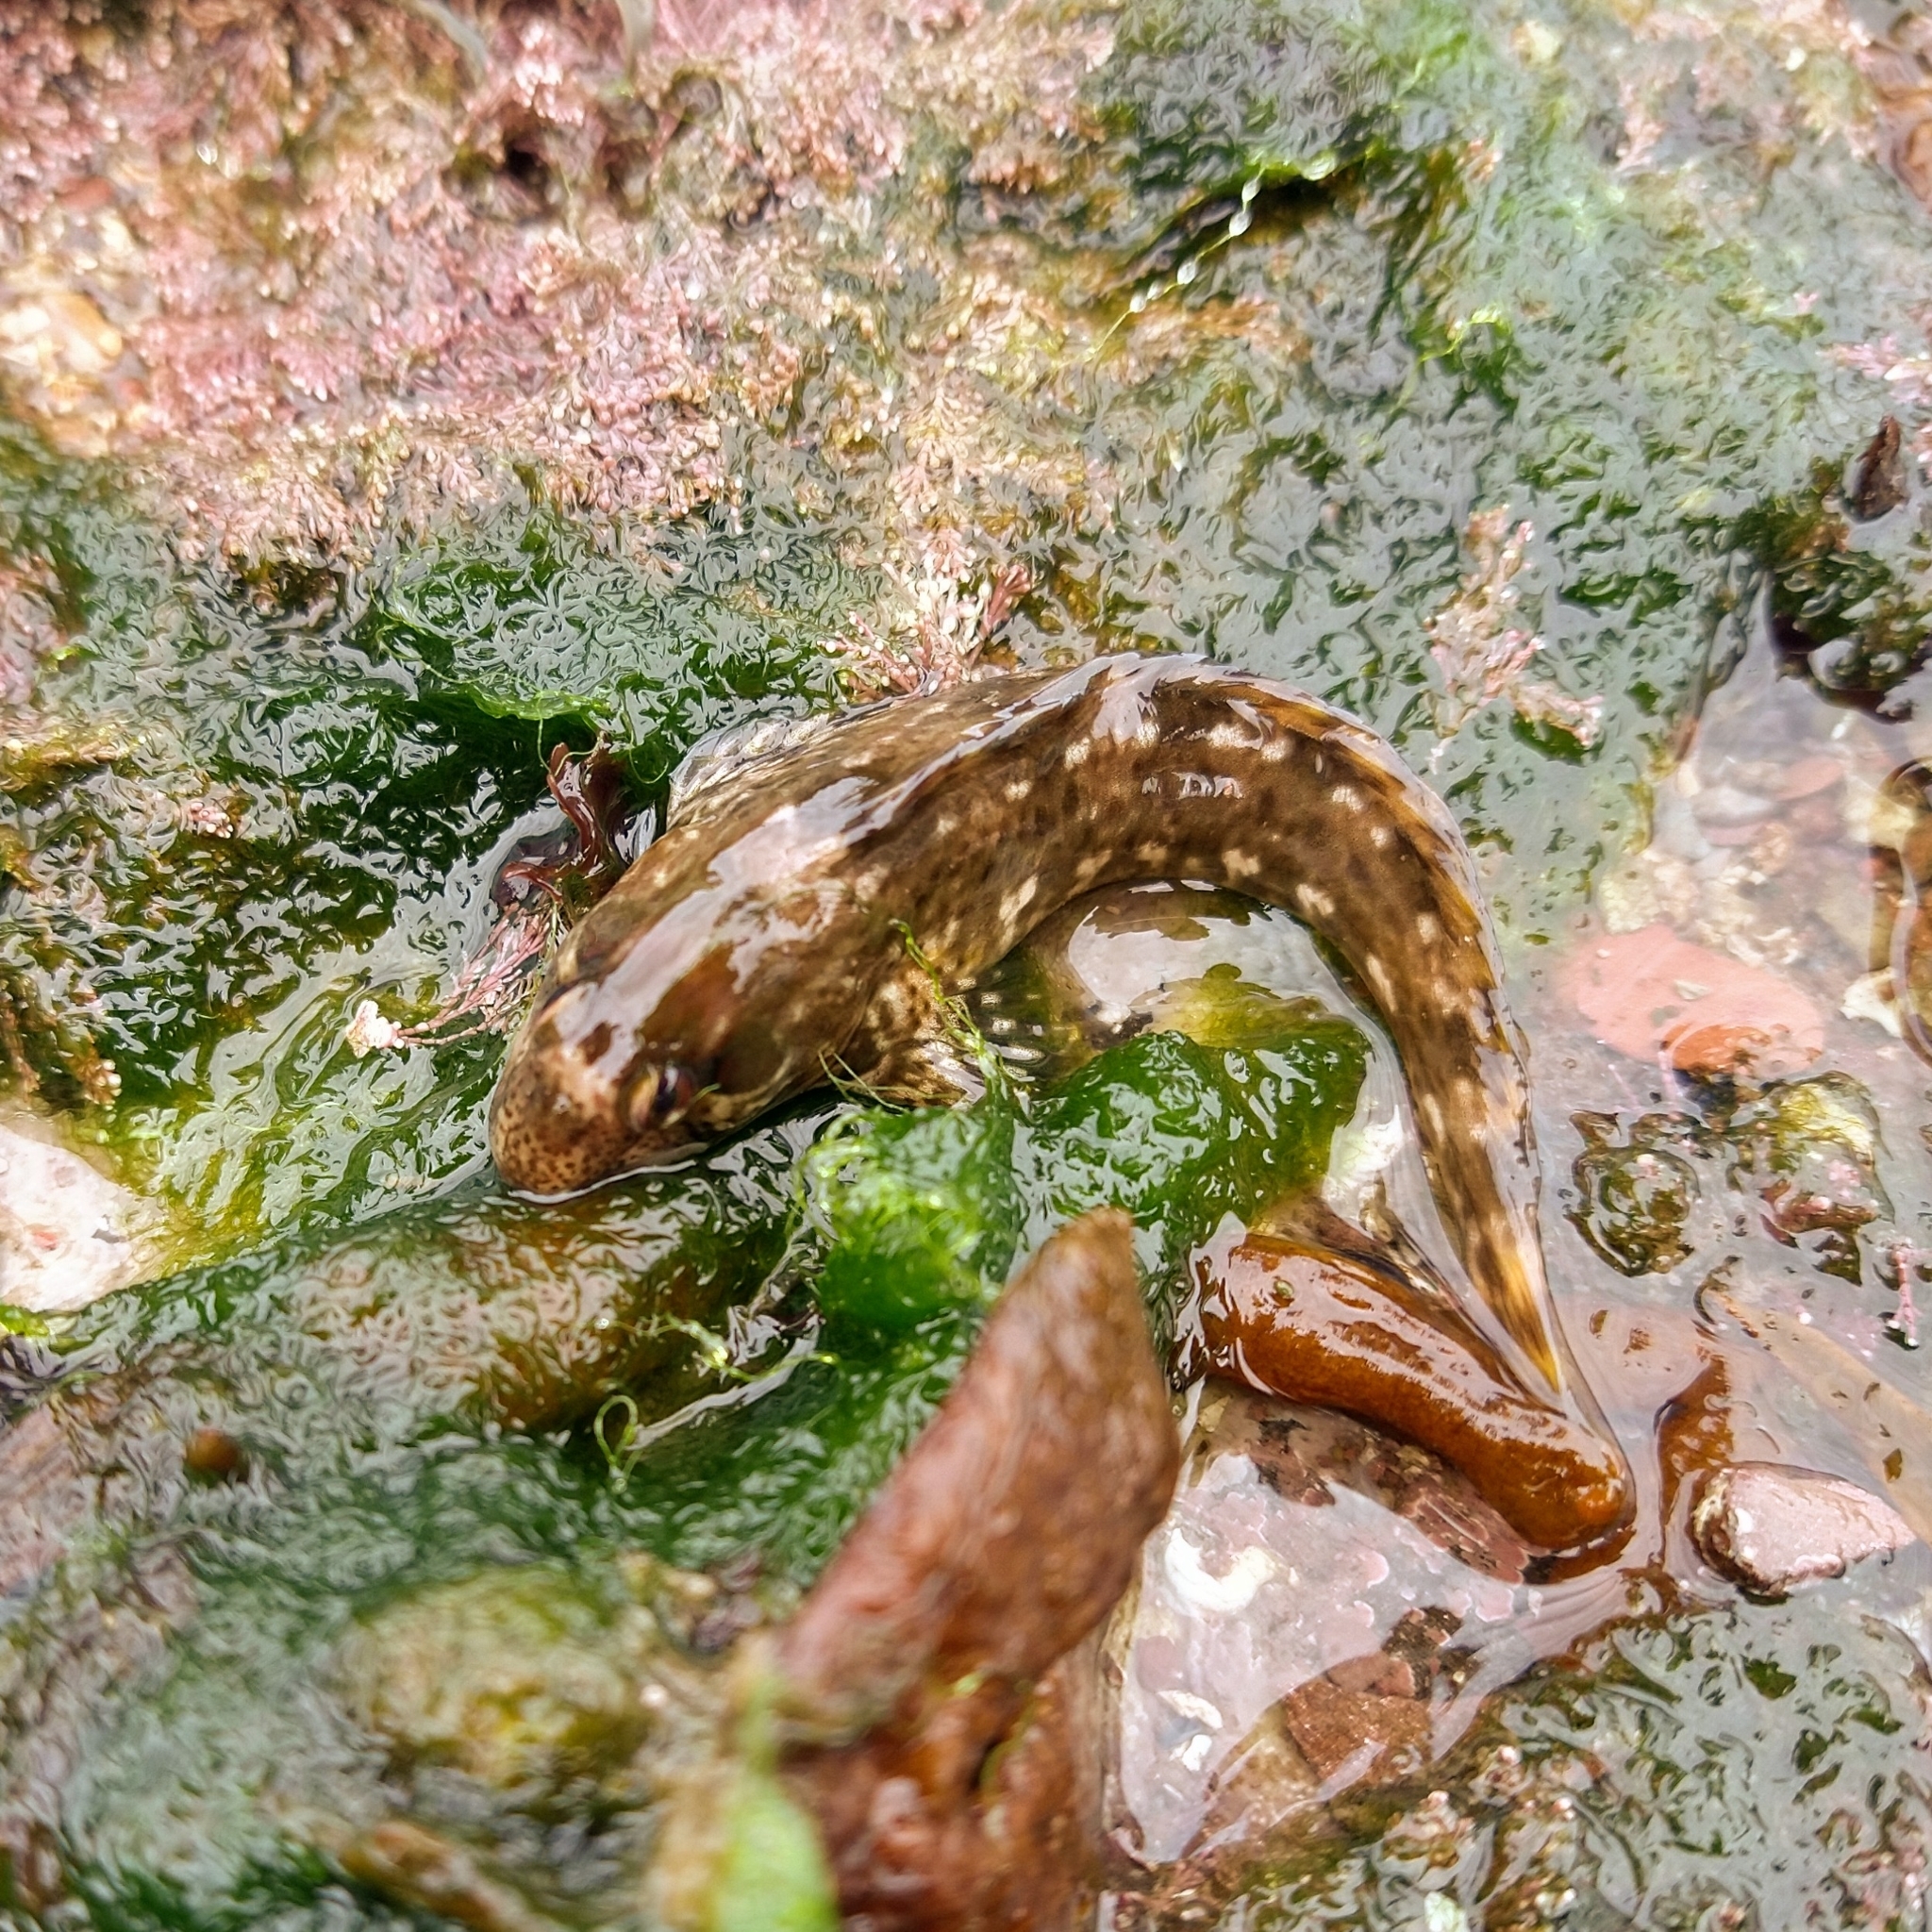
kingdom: Animalia
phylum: Chordata
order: Perciformes
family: Blenniidae
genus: Lipophrys
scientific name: Lipophrys pholis
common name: Shanny
